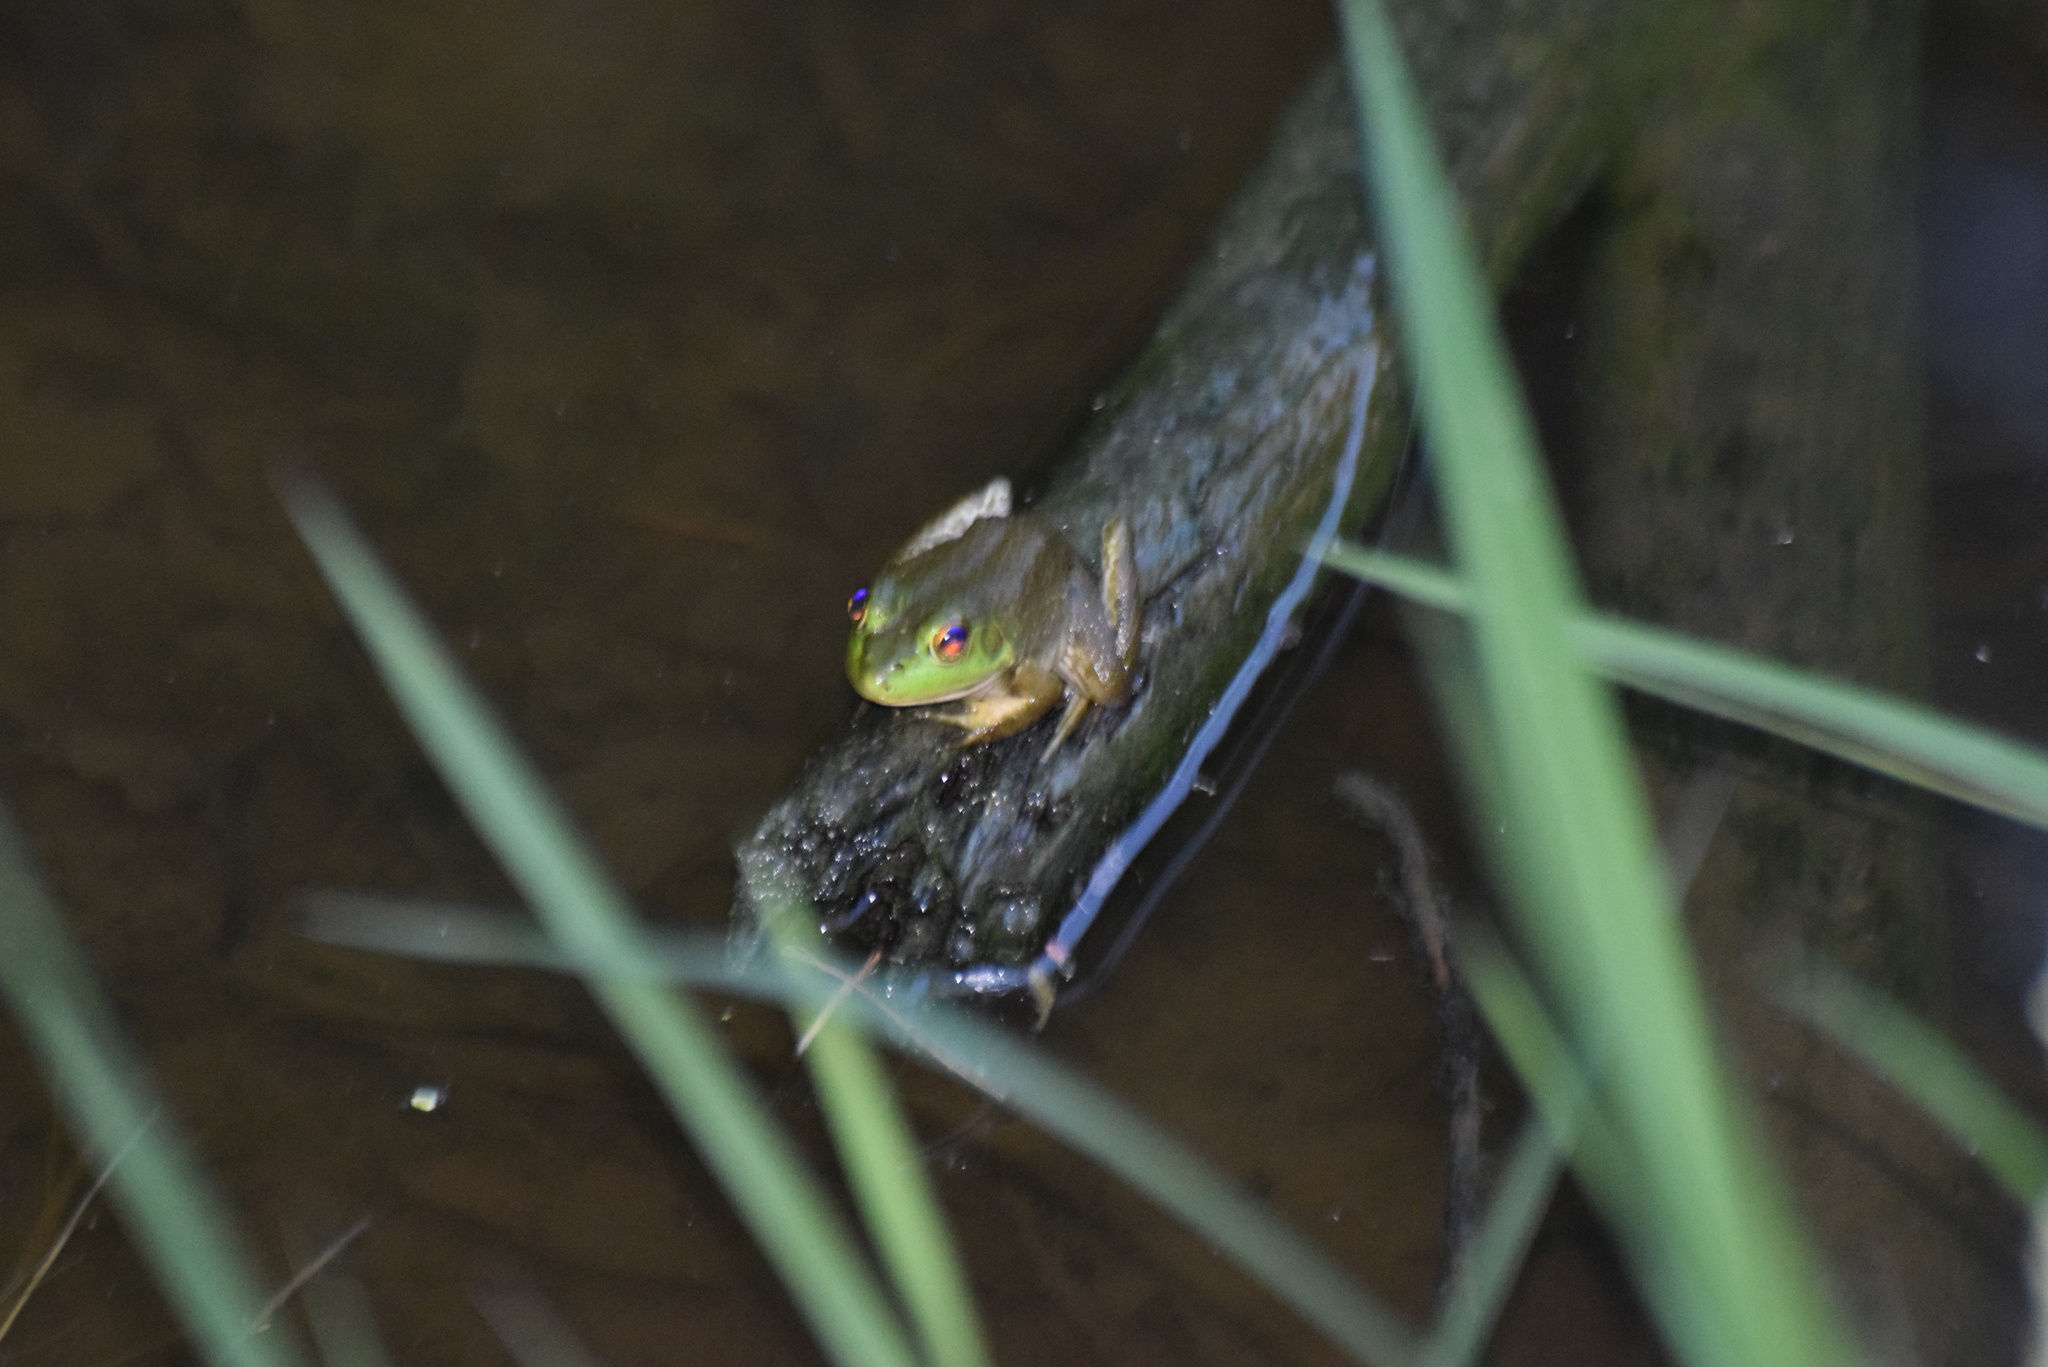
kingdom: Animalia
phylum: Chordata
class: Amphibia
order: Anura
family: Ranidae
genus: Lithobates
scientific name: Lithobates catesbeianus
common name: American bullfrog
